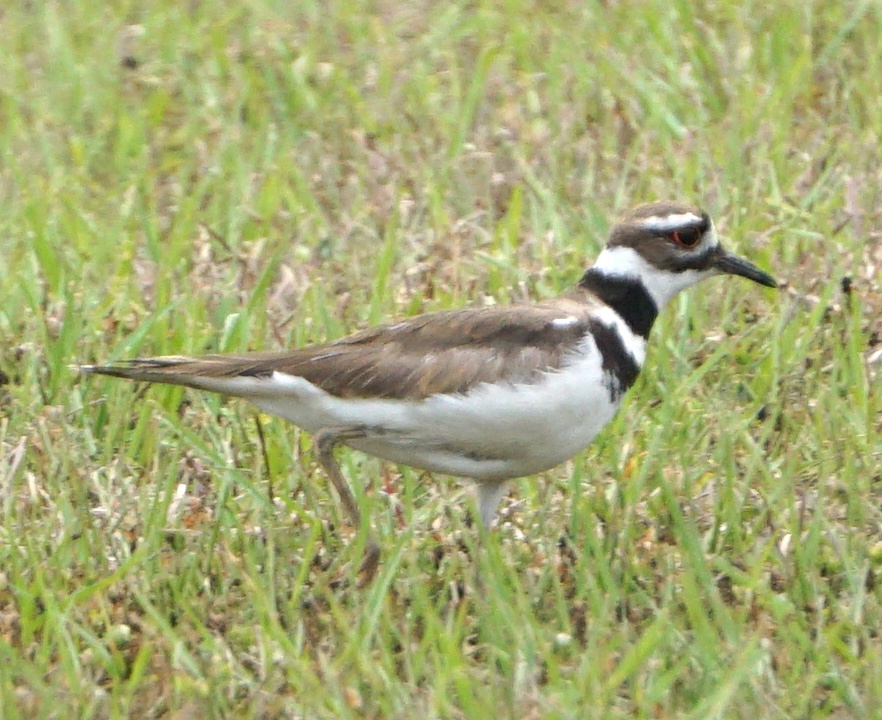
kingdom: Animalia
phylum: Chordata
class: Aves
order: Charadriiformes
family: Charadriidae
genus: Charadrius
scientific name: Charadrius vociferus
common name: Killdeer
